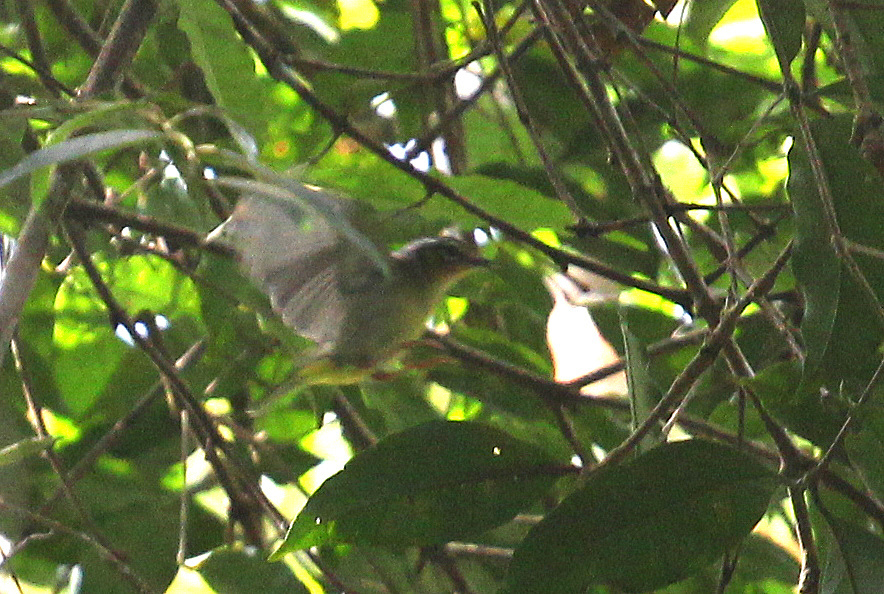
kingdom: Animalia
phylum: Chordata
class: Aves
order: Passeriformes
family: Vireonidae
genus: Pteruthius
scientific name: Pteruthius melanotis
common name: Black-eared shrike-babbler
